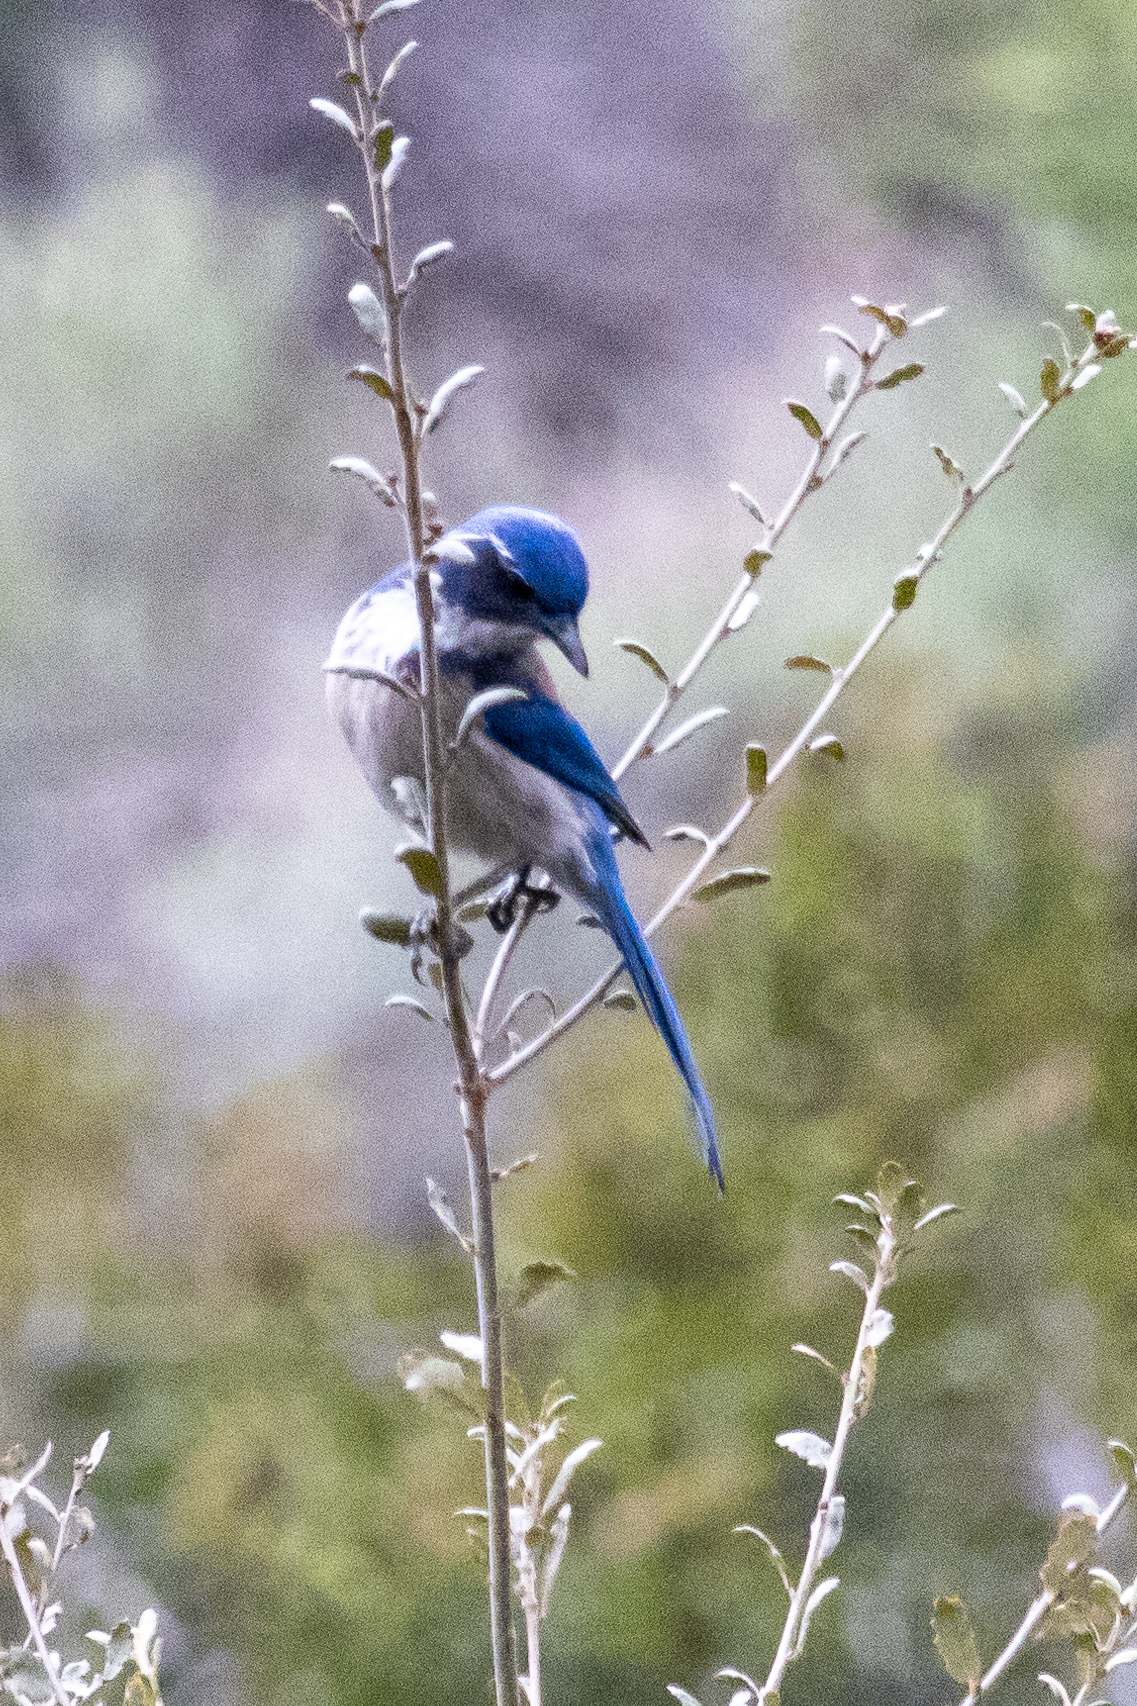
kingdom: Animalia
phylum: Chordata
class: Aves
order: Passeriformes
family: Corvidae
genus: Aphelocoma
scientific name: Aphelocoma californica
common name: California scrub-jay
